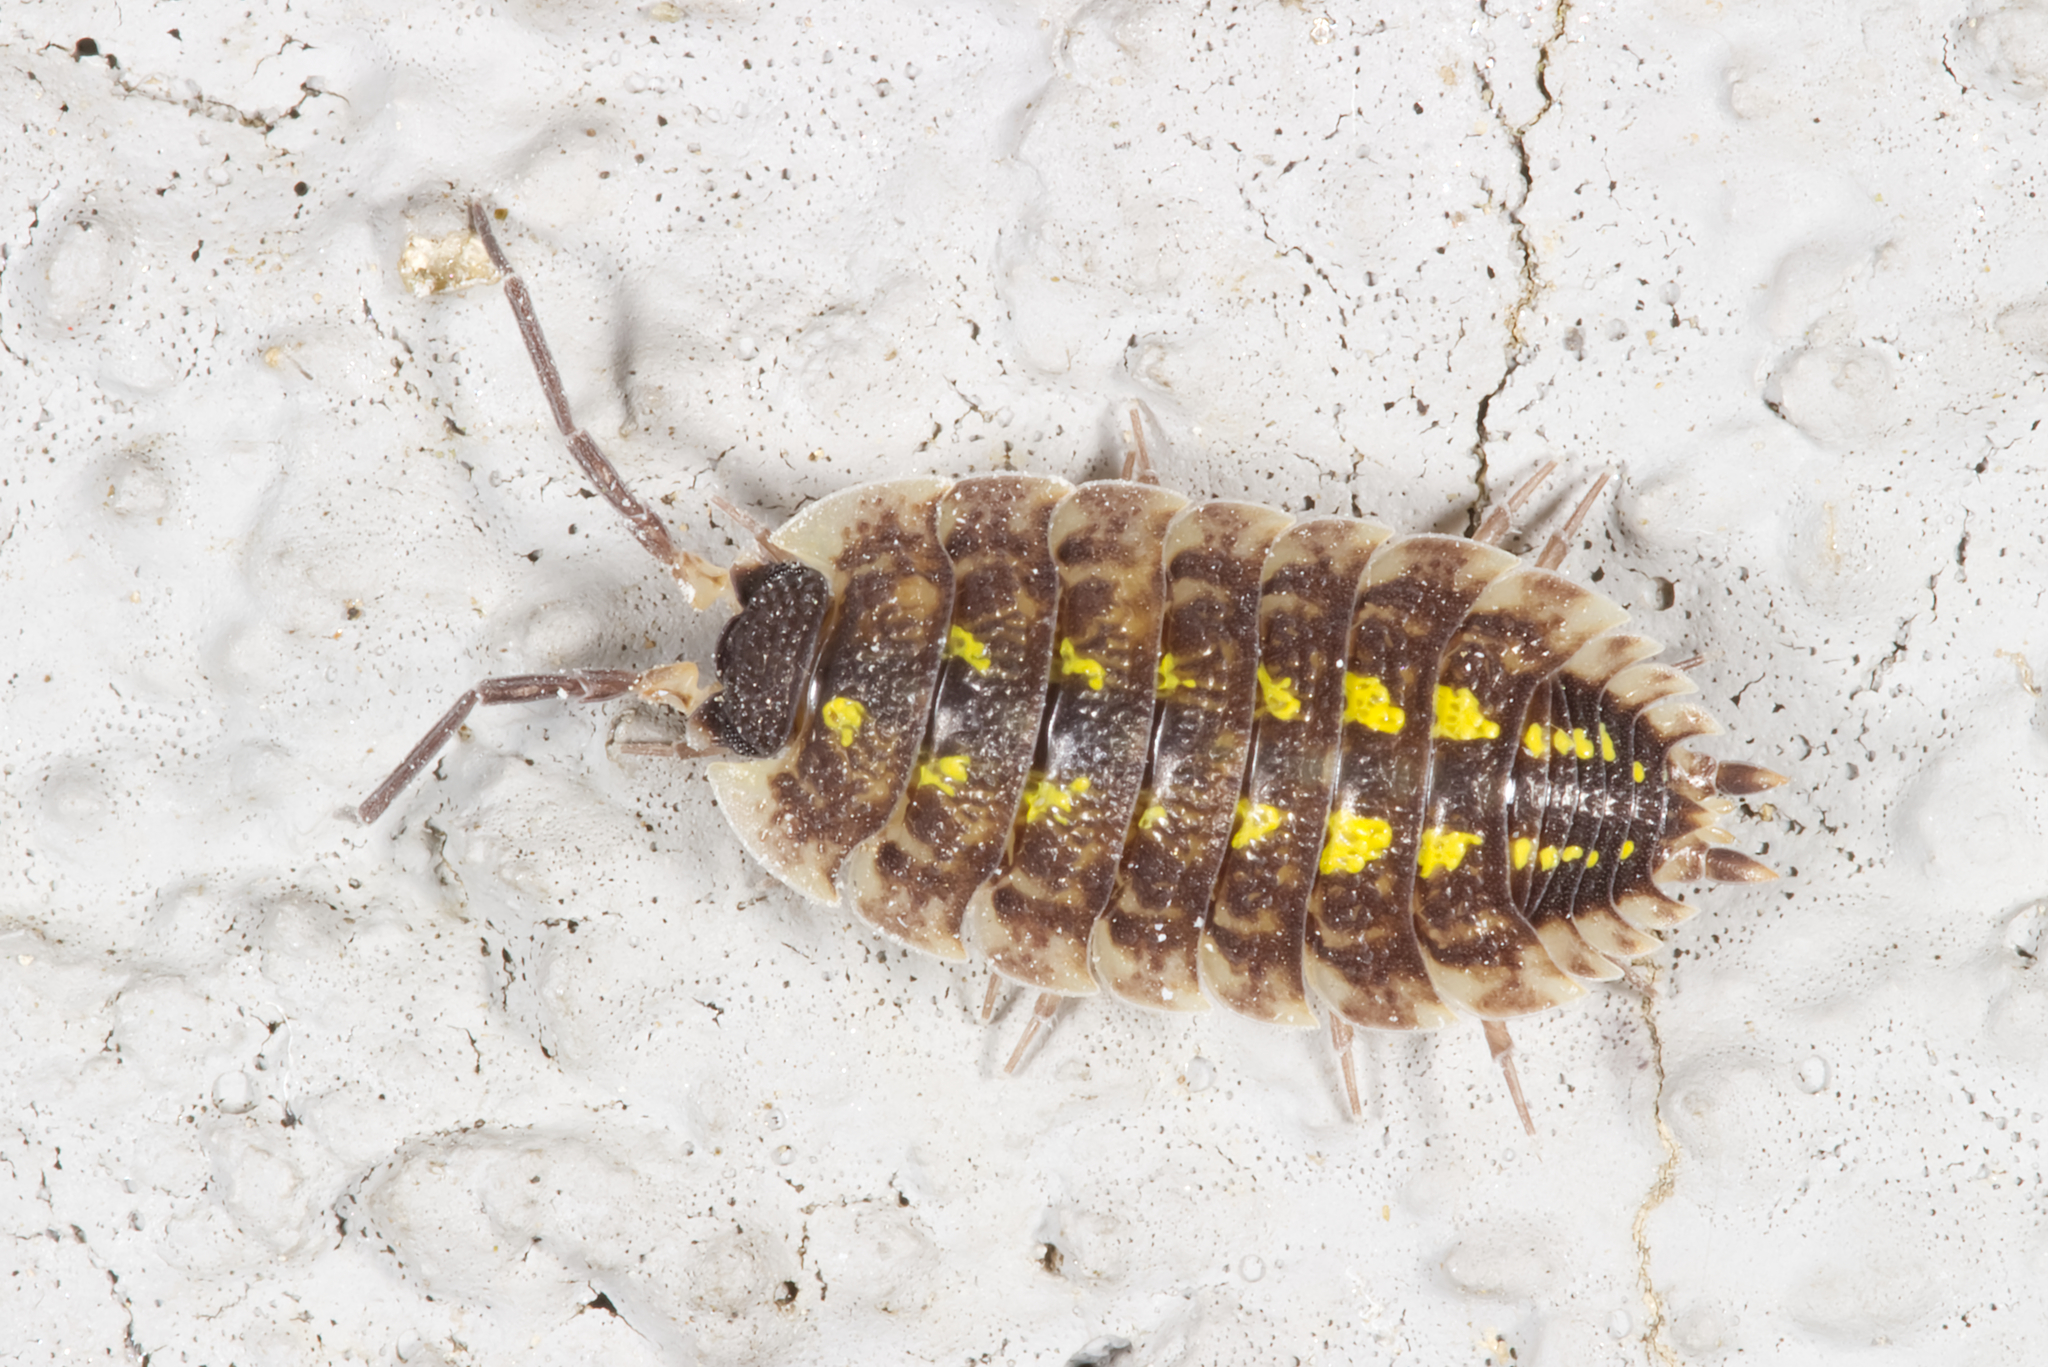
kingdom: Animalia
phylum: Arthropoda
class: Malacostraca
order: Isopoda
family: Porcellionidae
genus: Porcellio
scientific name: Porcellio spinicornis
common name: Painted woodlouse
